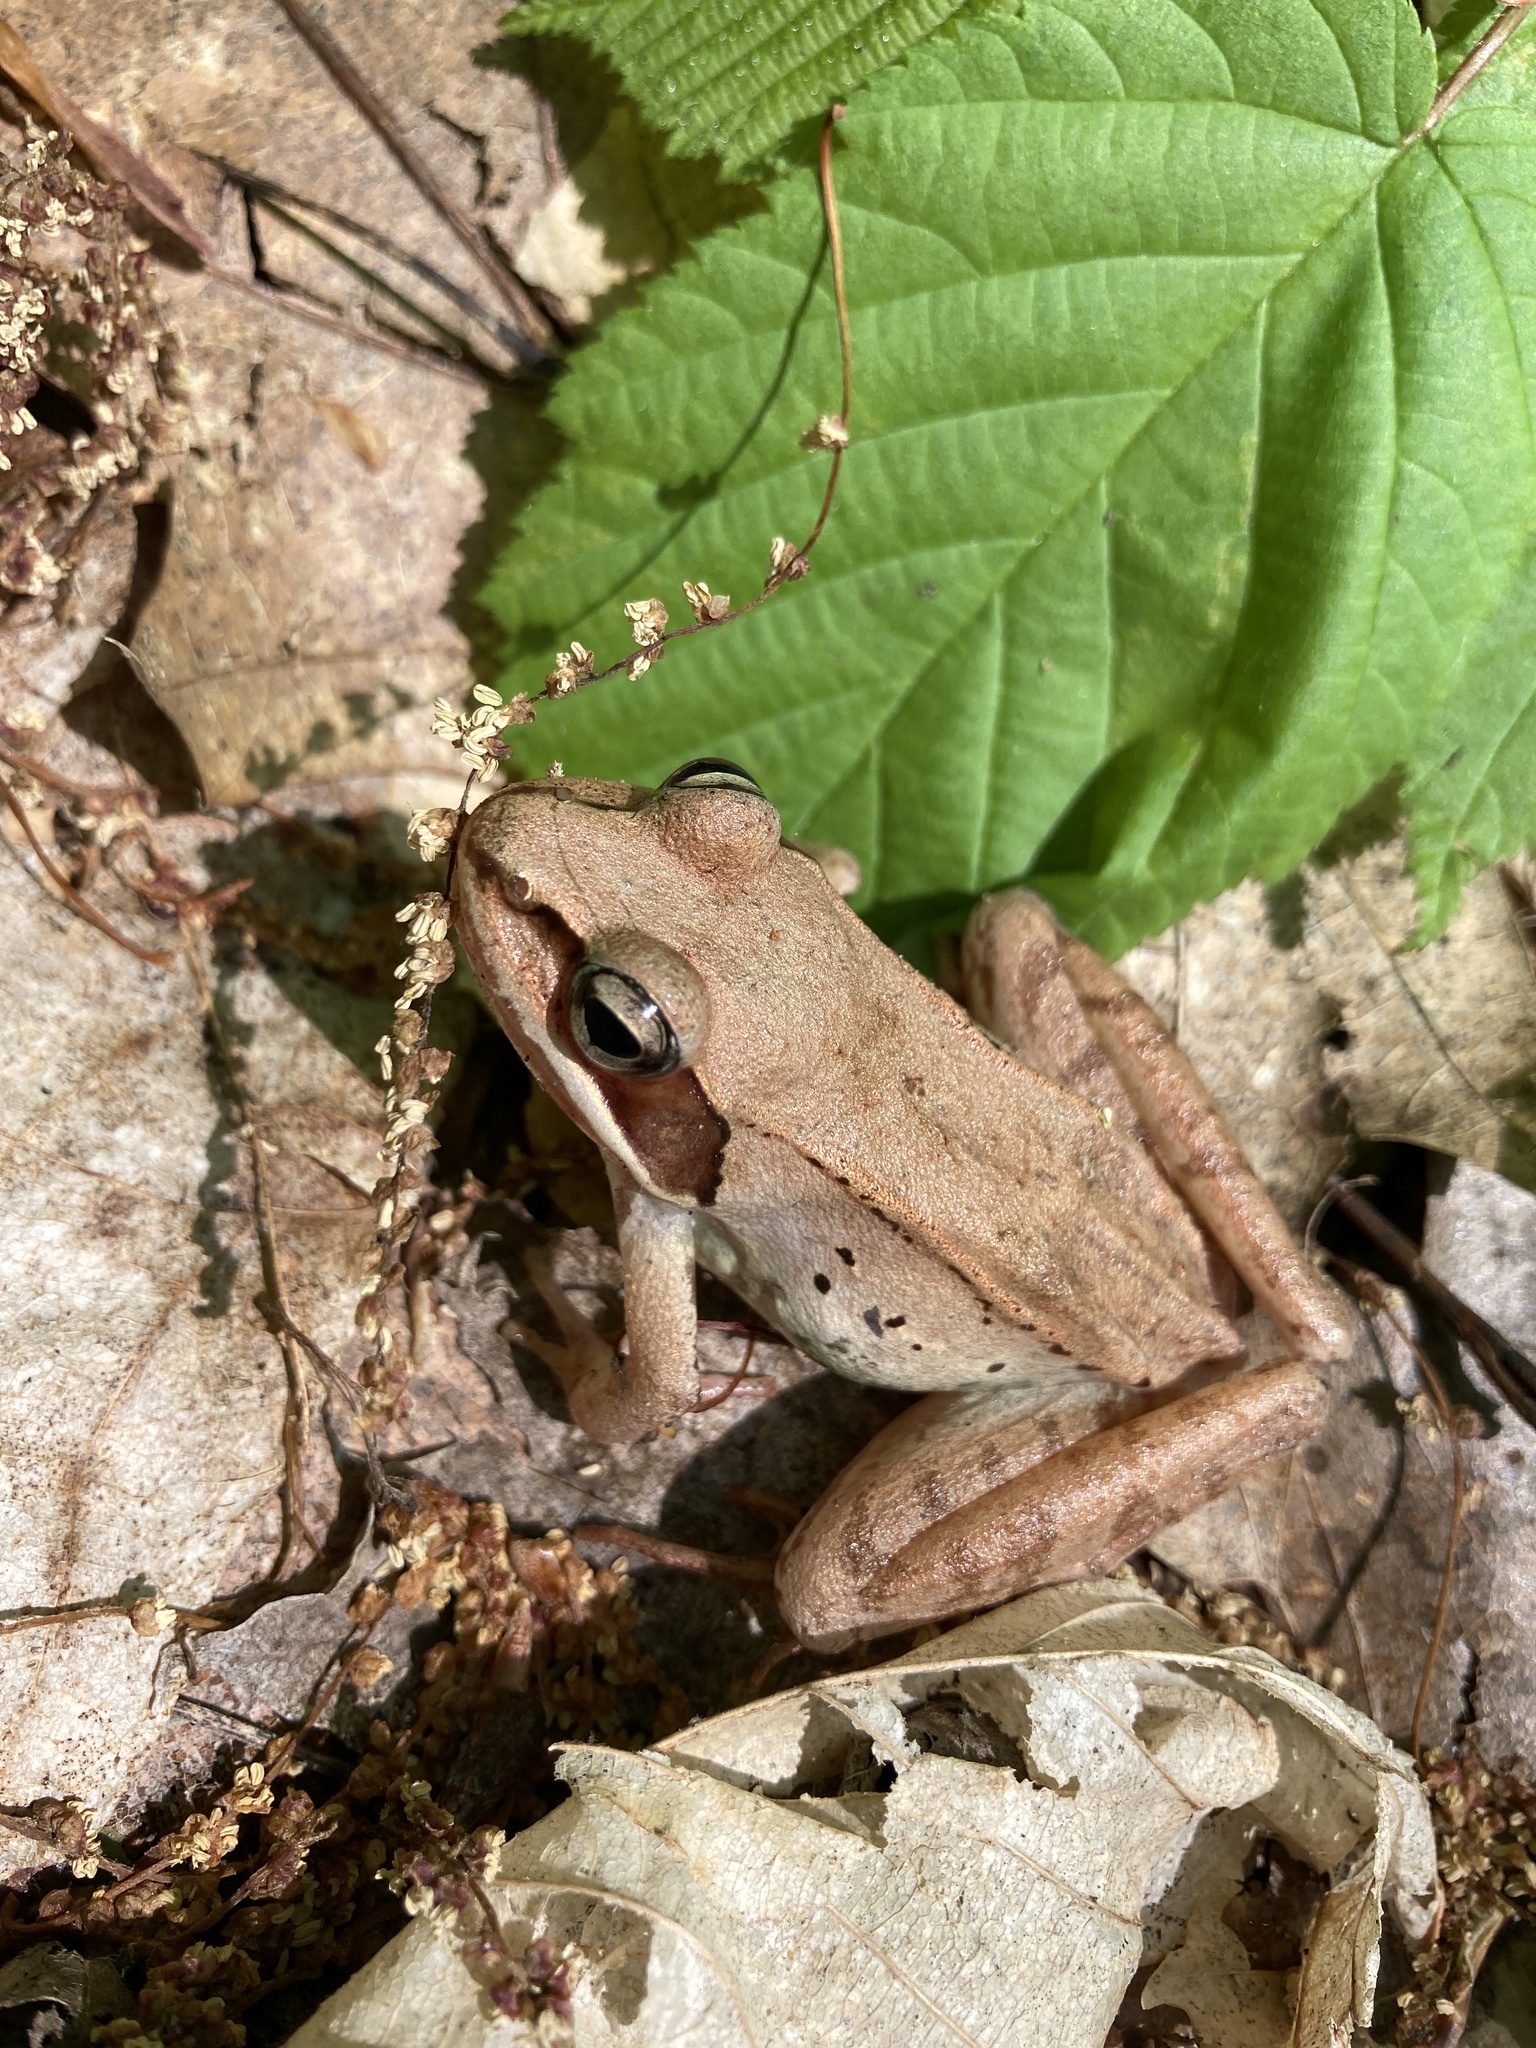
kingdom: Animalia
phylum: Chordata
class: Amphibia
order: Anura
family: Ranidae
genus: Lithobates
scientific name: Lithobates sylvaticus
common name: Wood frog
